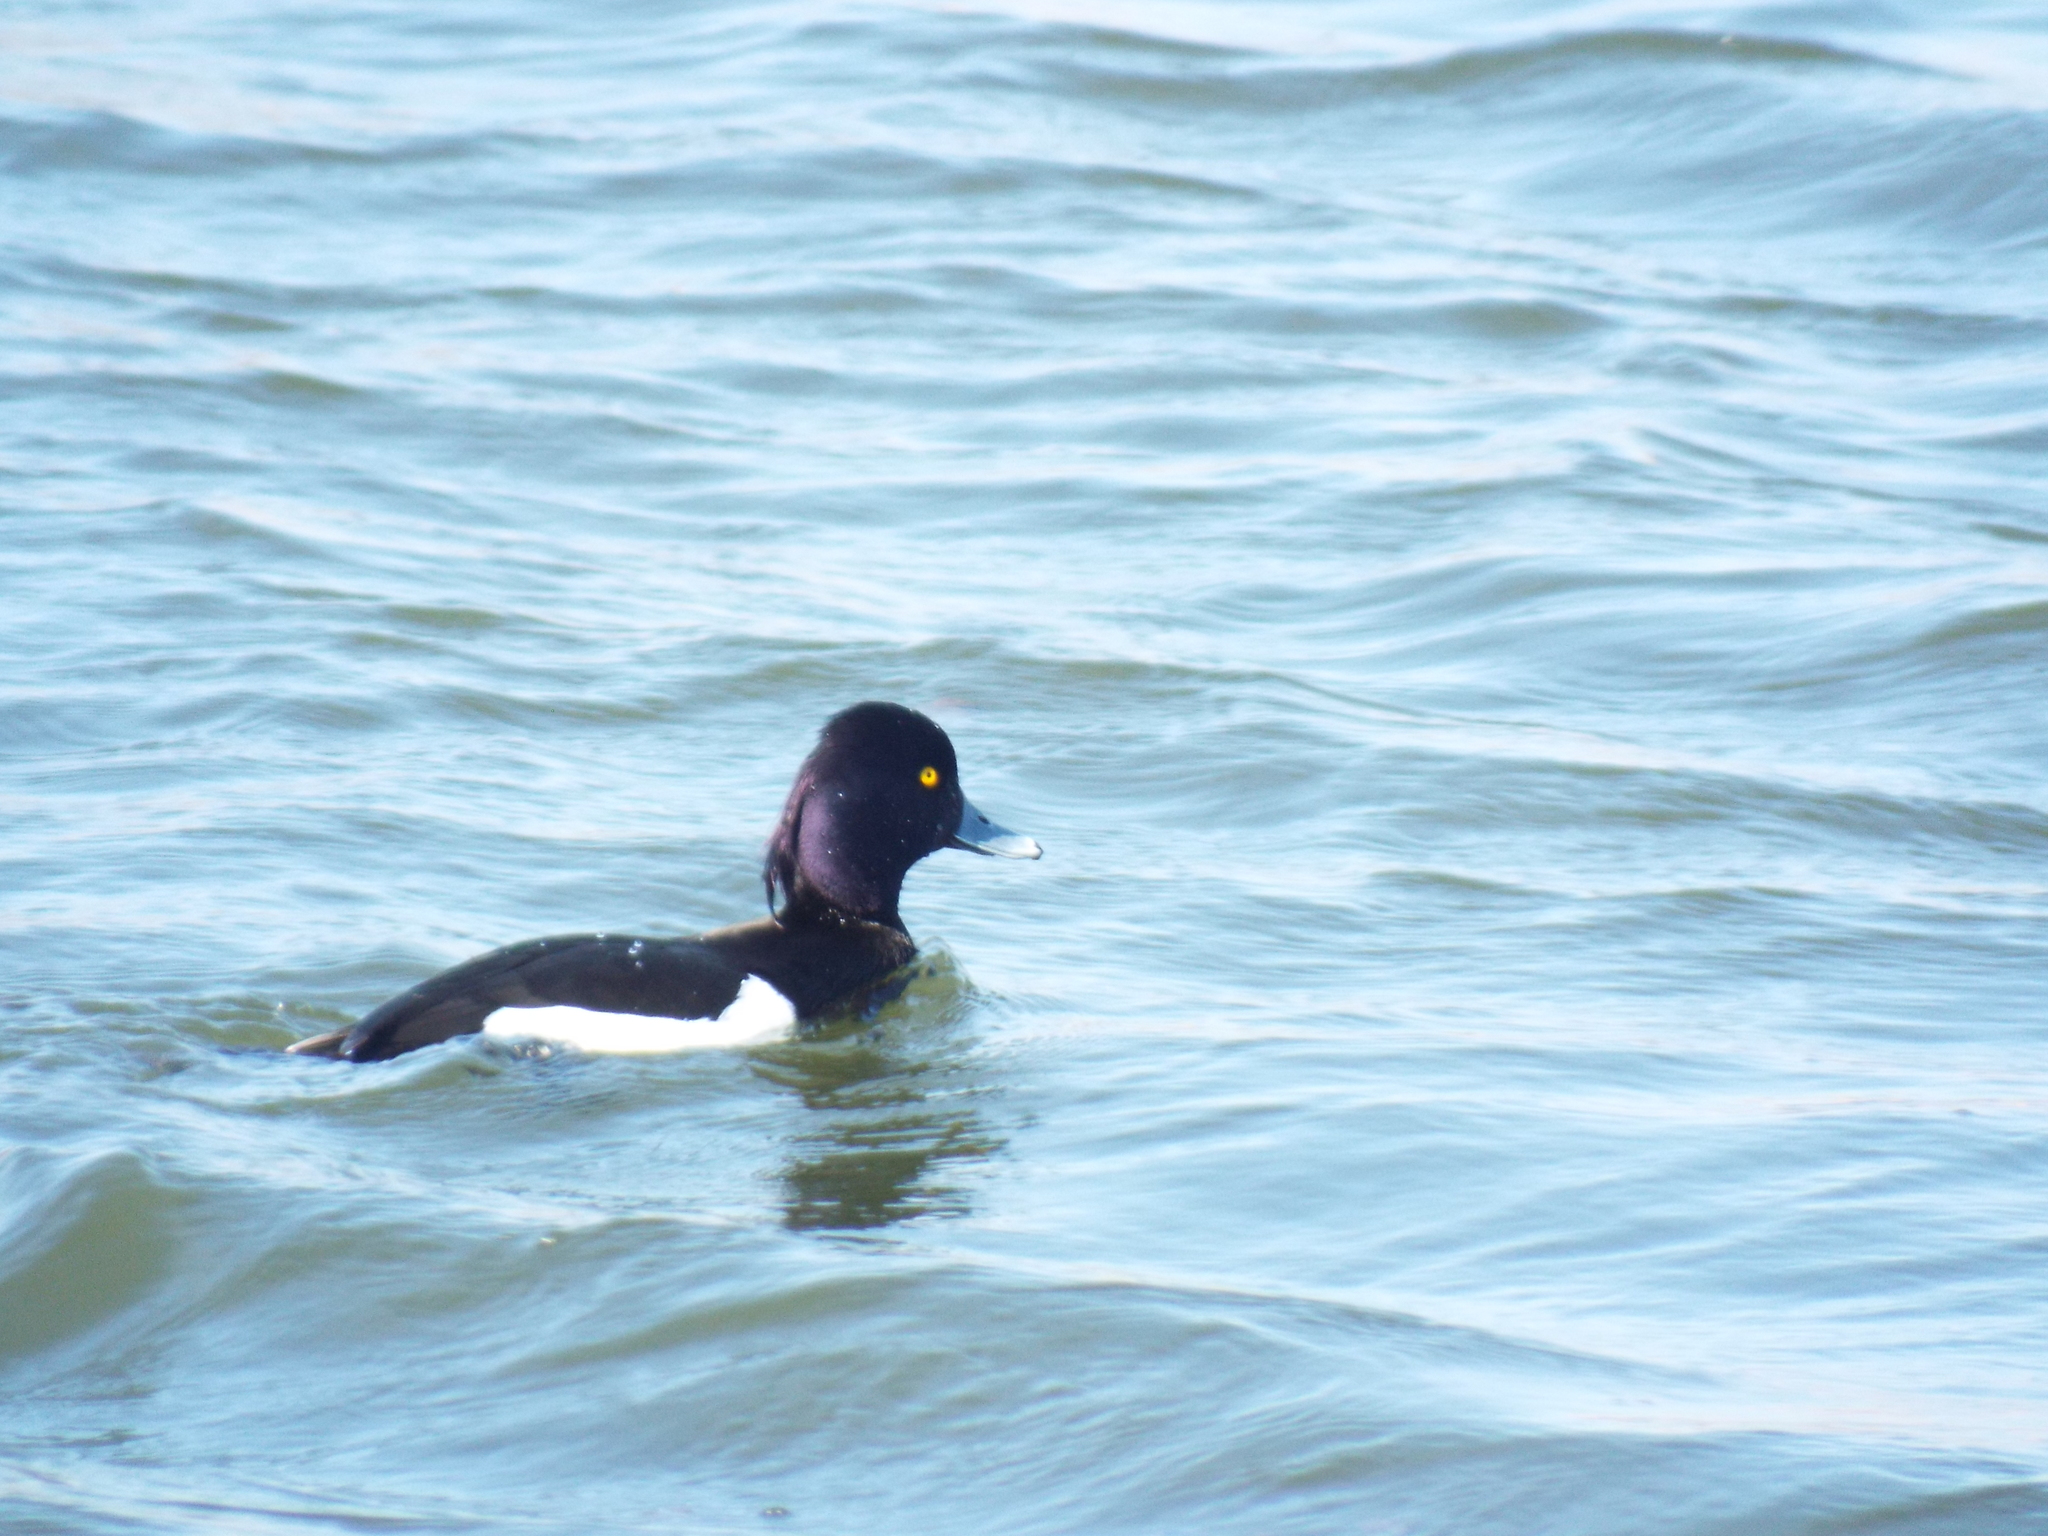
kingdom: Animalia
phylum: Chordata
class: Aves
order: Anseriformes
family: Anatidae
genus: Aythya
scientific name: Aythya fuligula
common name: Tufted duck
